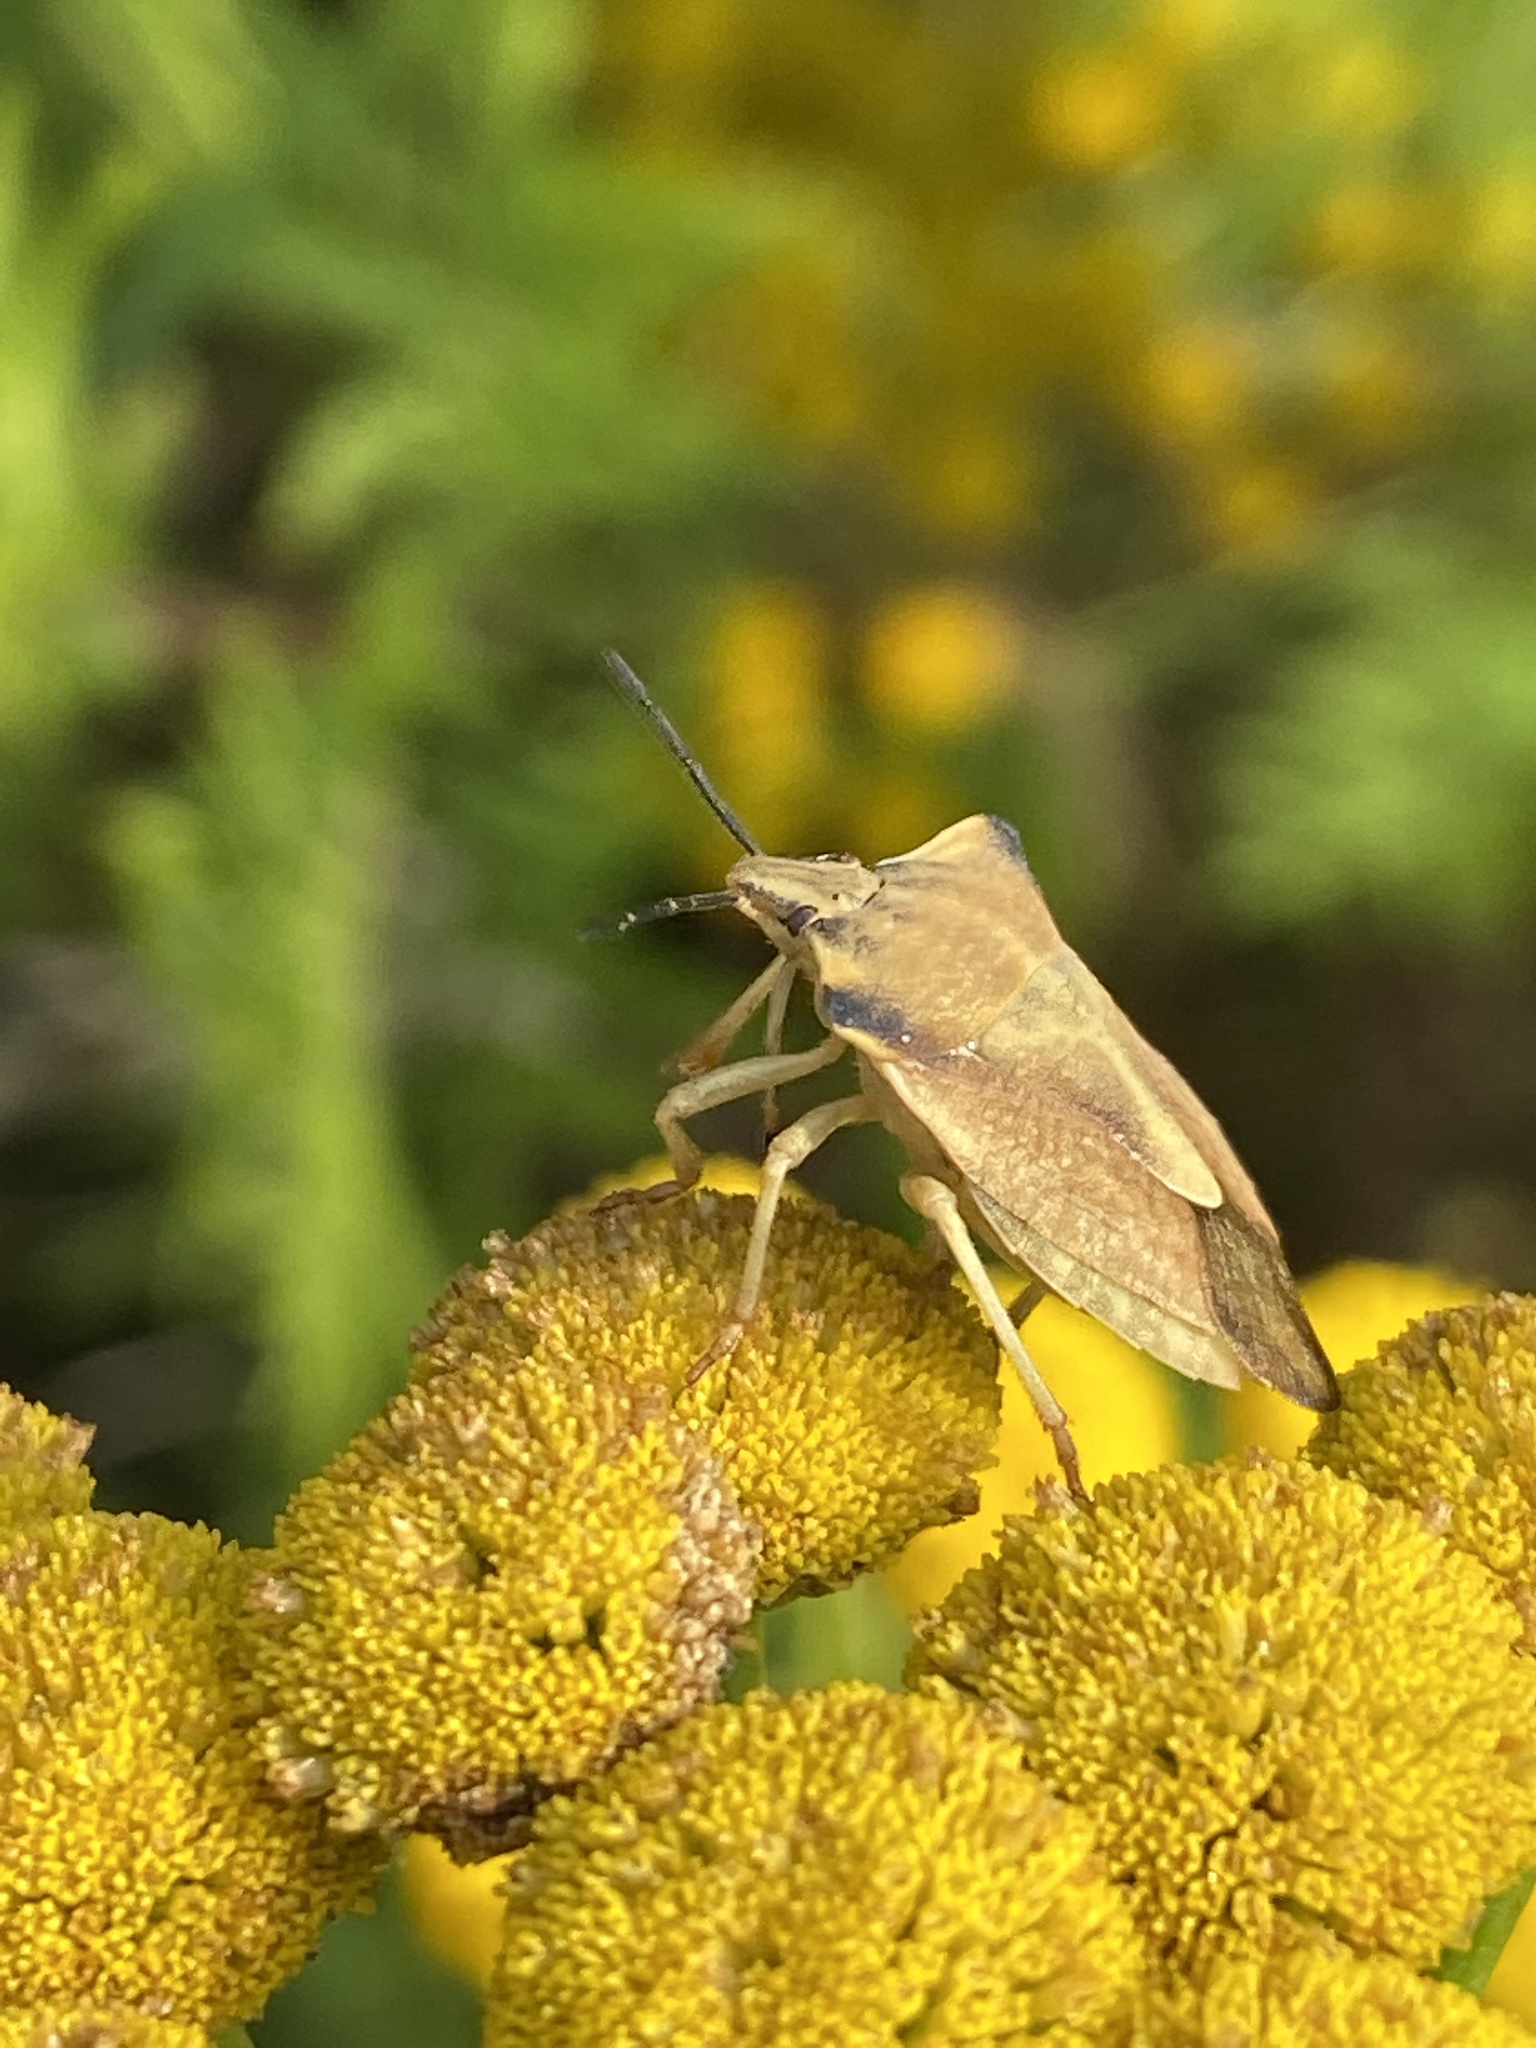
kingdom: Animalia
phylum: Arthropoda
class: Insecta
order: Hemiptera
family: Pentatomidae
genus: Carpocoris
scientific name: Carpocoris fuscispinus
